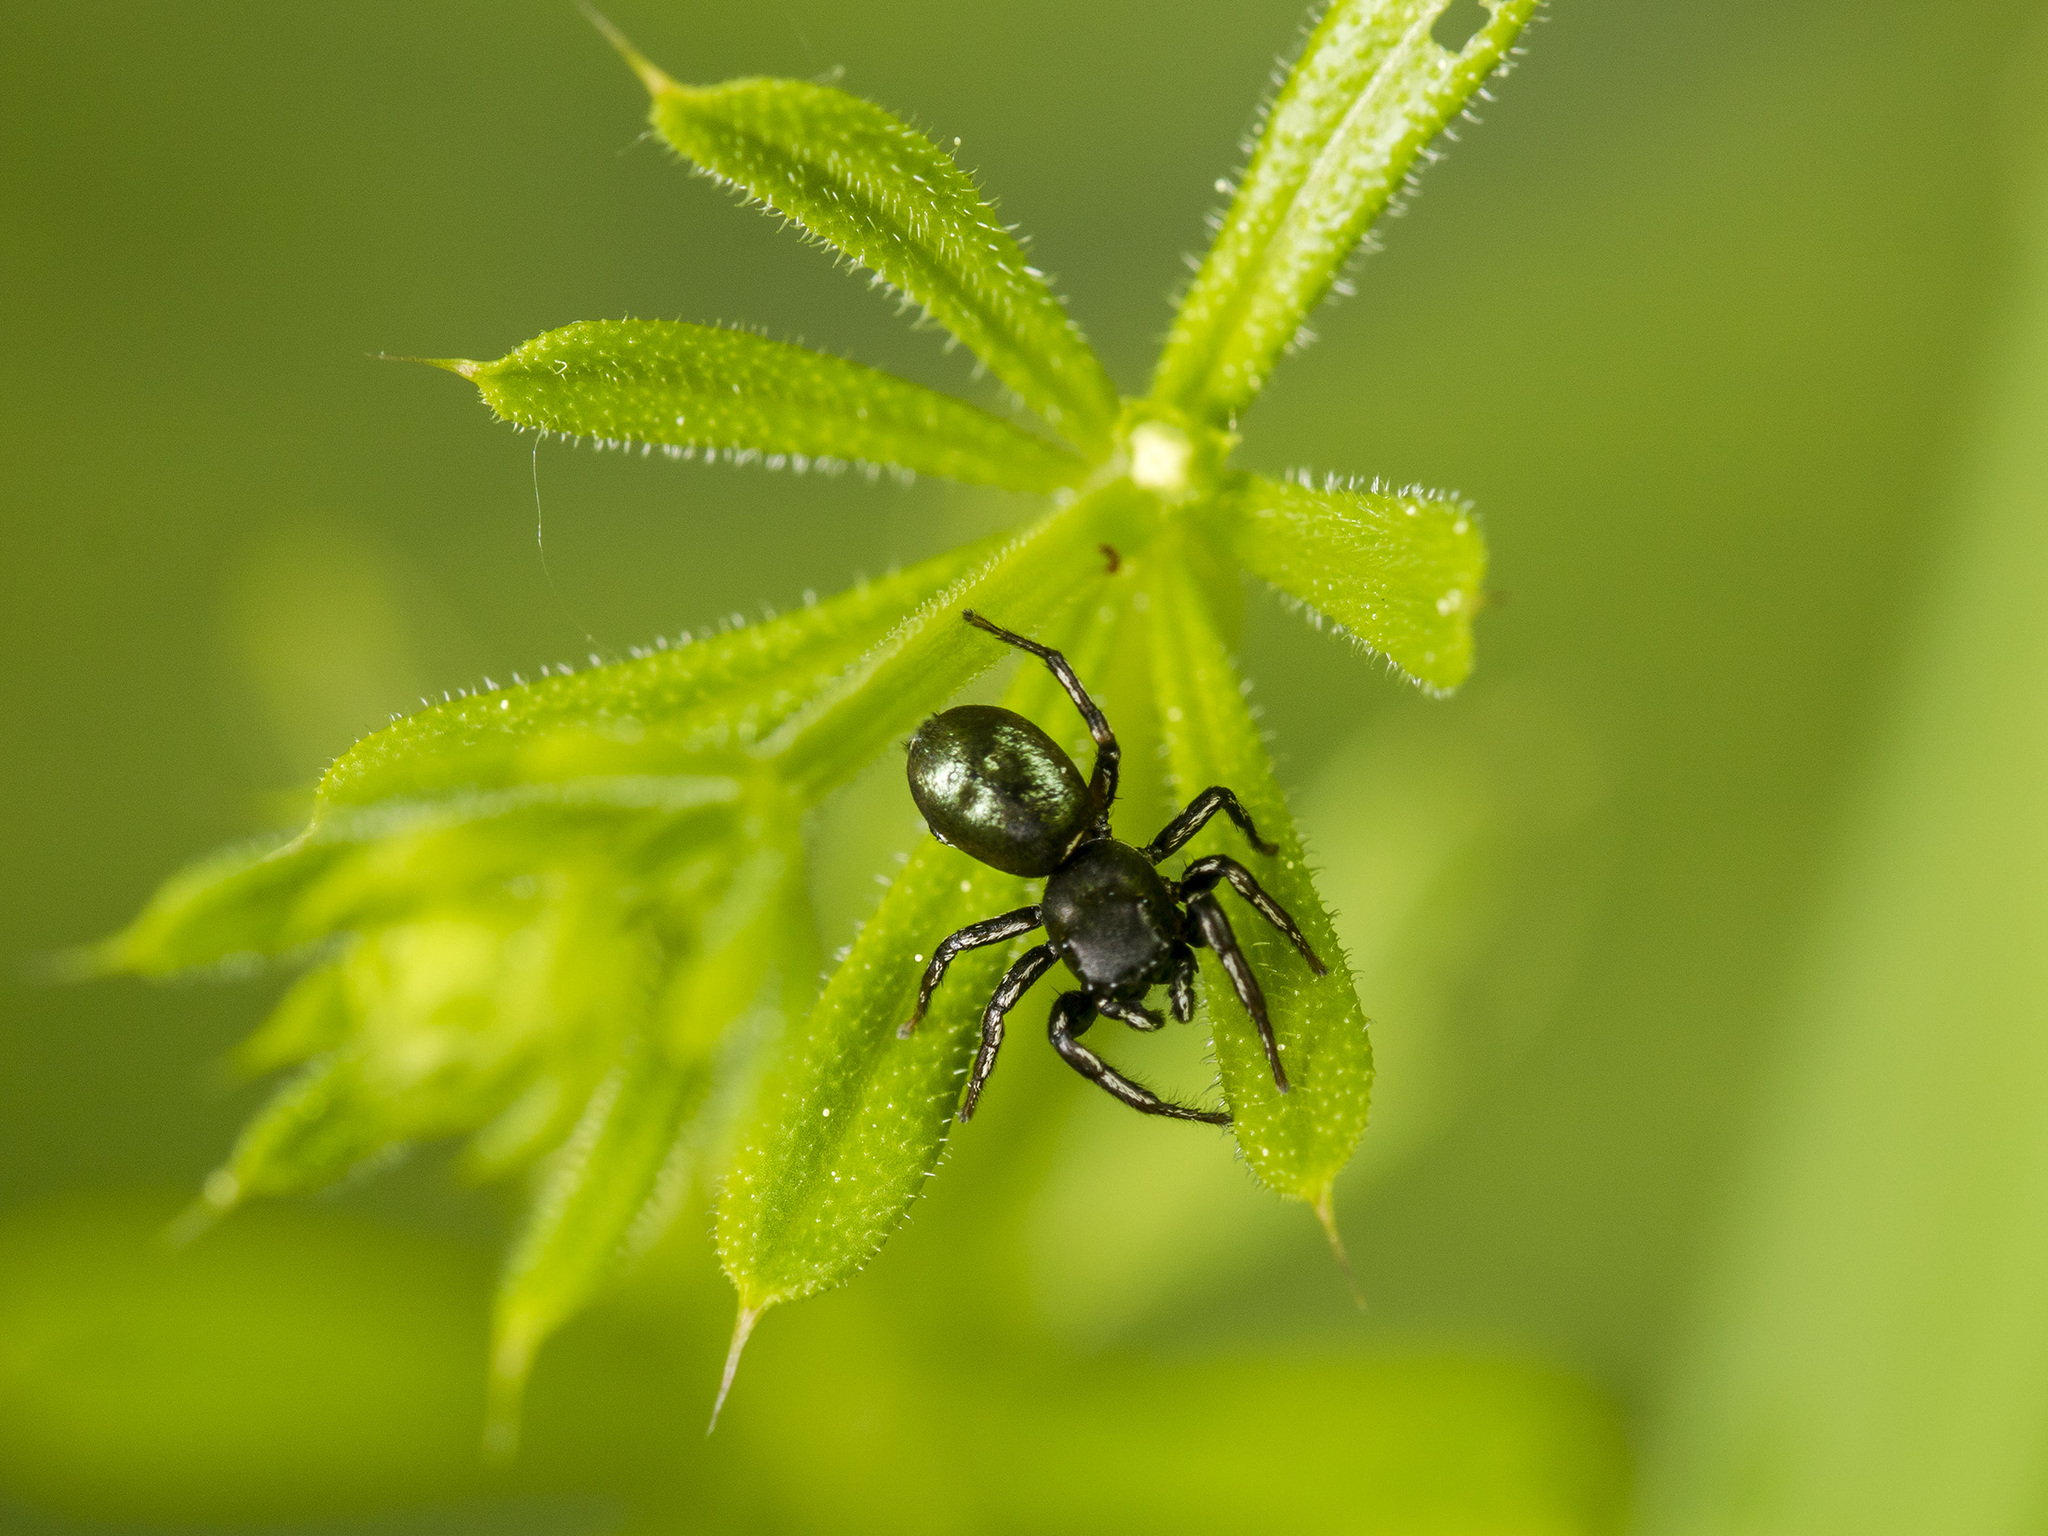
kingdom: Animalia
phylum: Arthropoda
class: Arachnida
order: Araneae
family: Salticidae
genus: Heliophanus
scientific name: Heliophanus auratus
